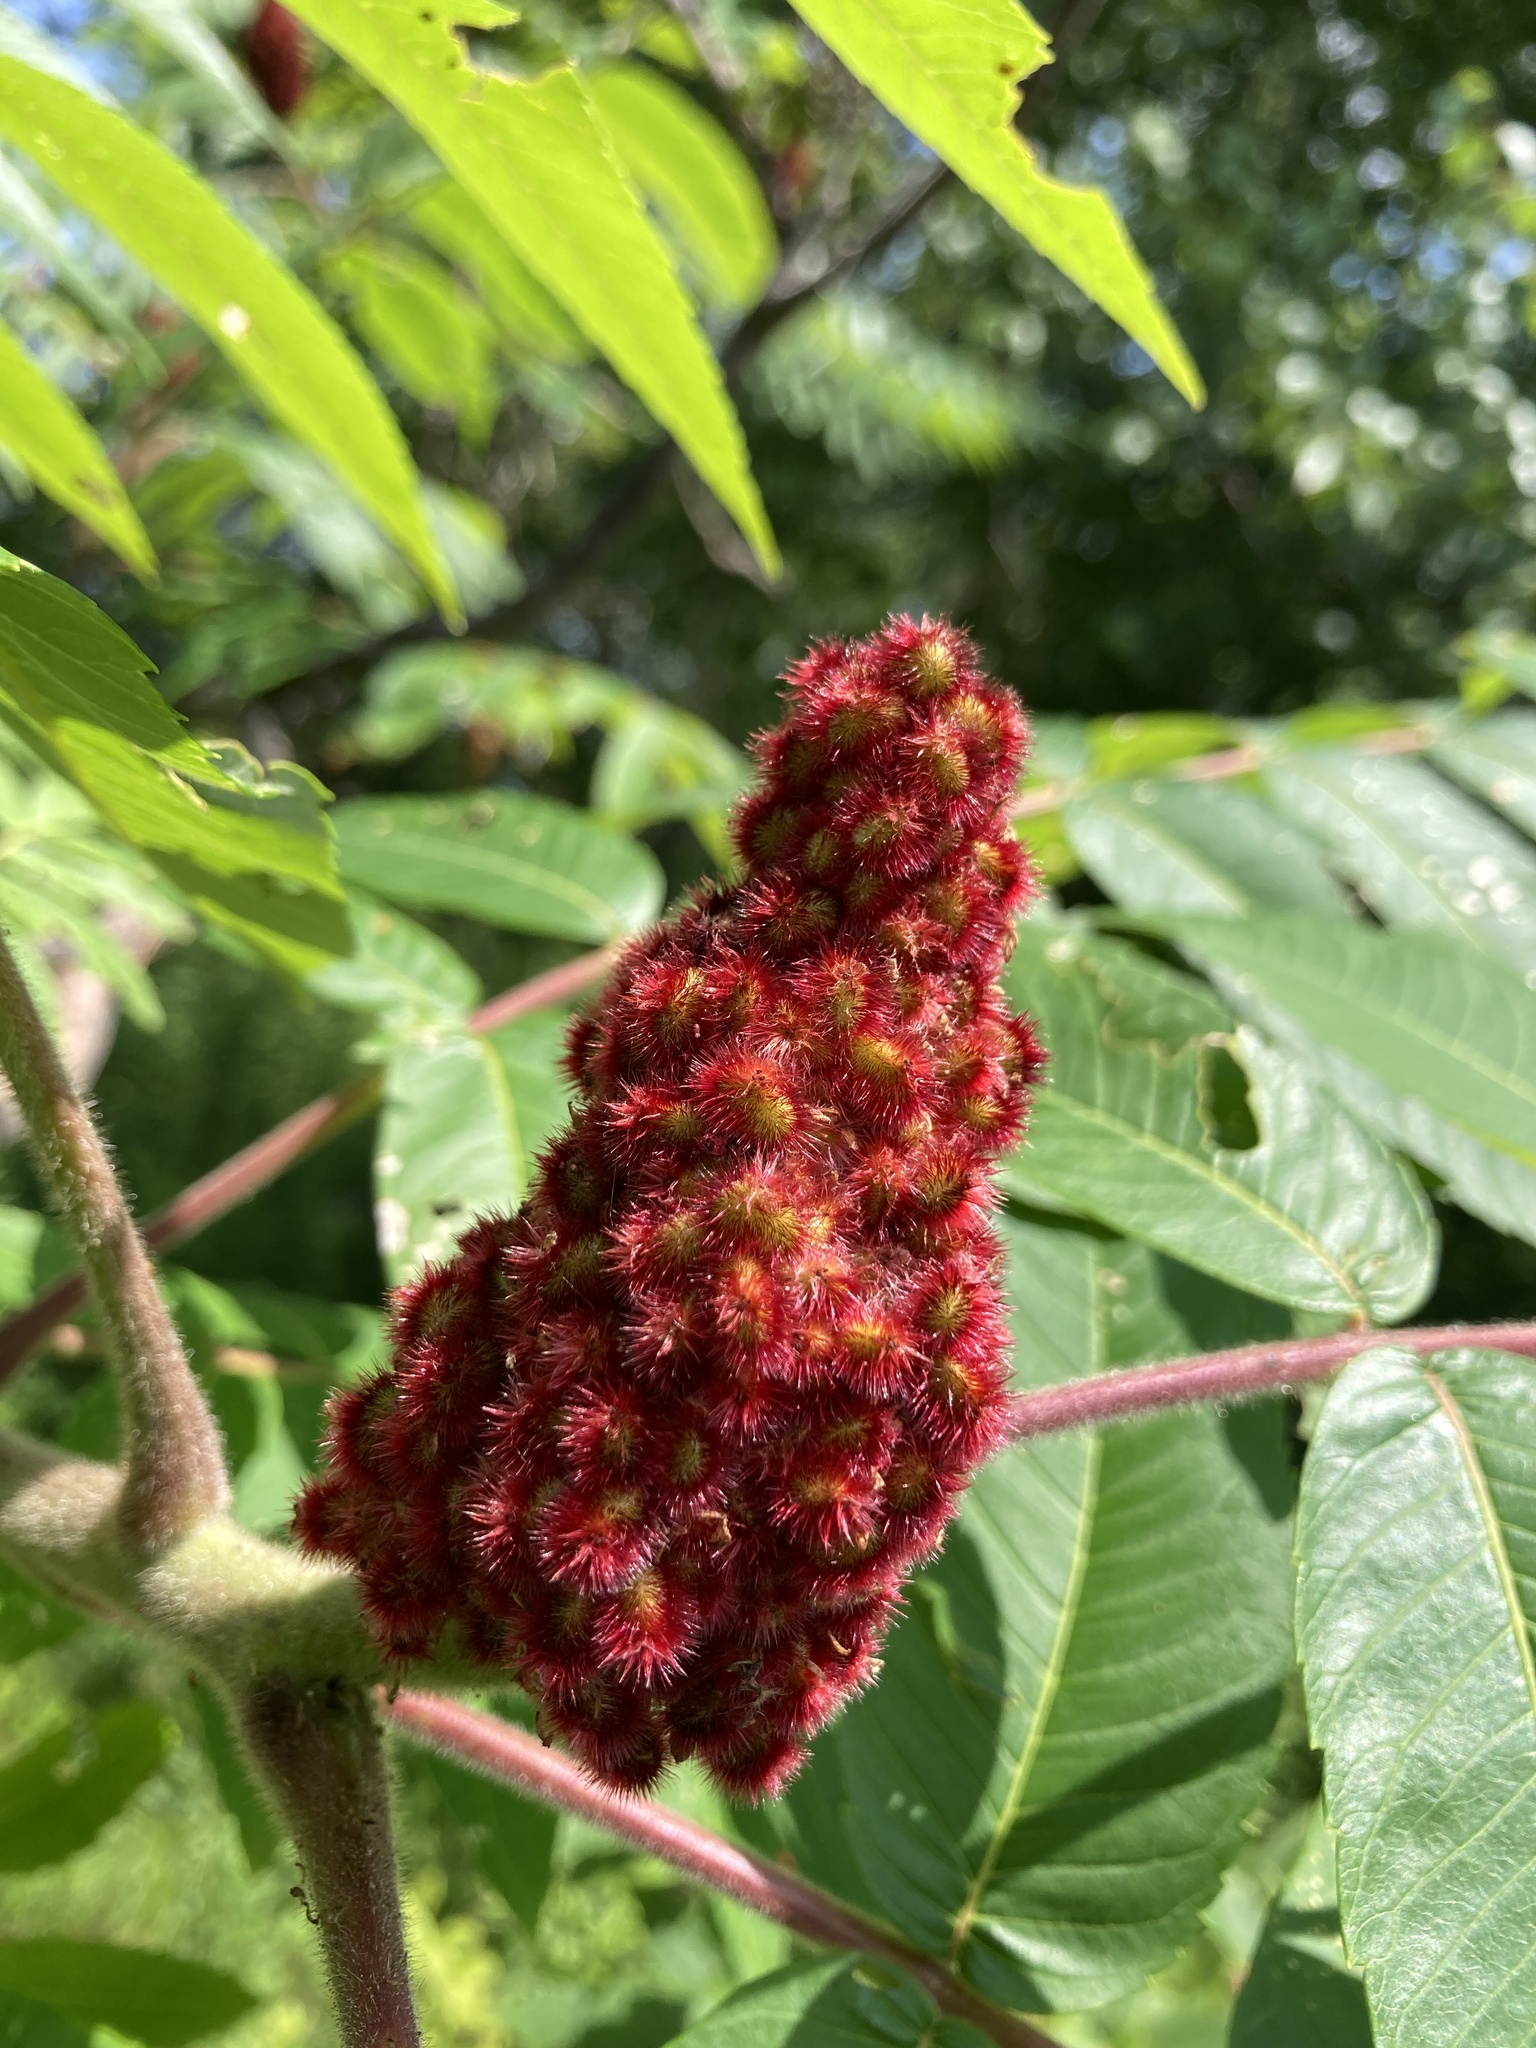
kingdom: Plantae
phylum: Tracheophyta
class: Magnoliopsida
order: Sapindales
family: Anacardiaceae
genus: Rhus
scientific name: Rhus typhina
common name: Staghorn sumac
